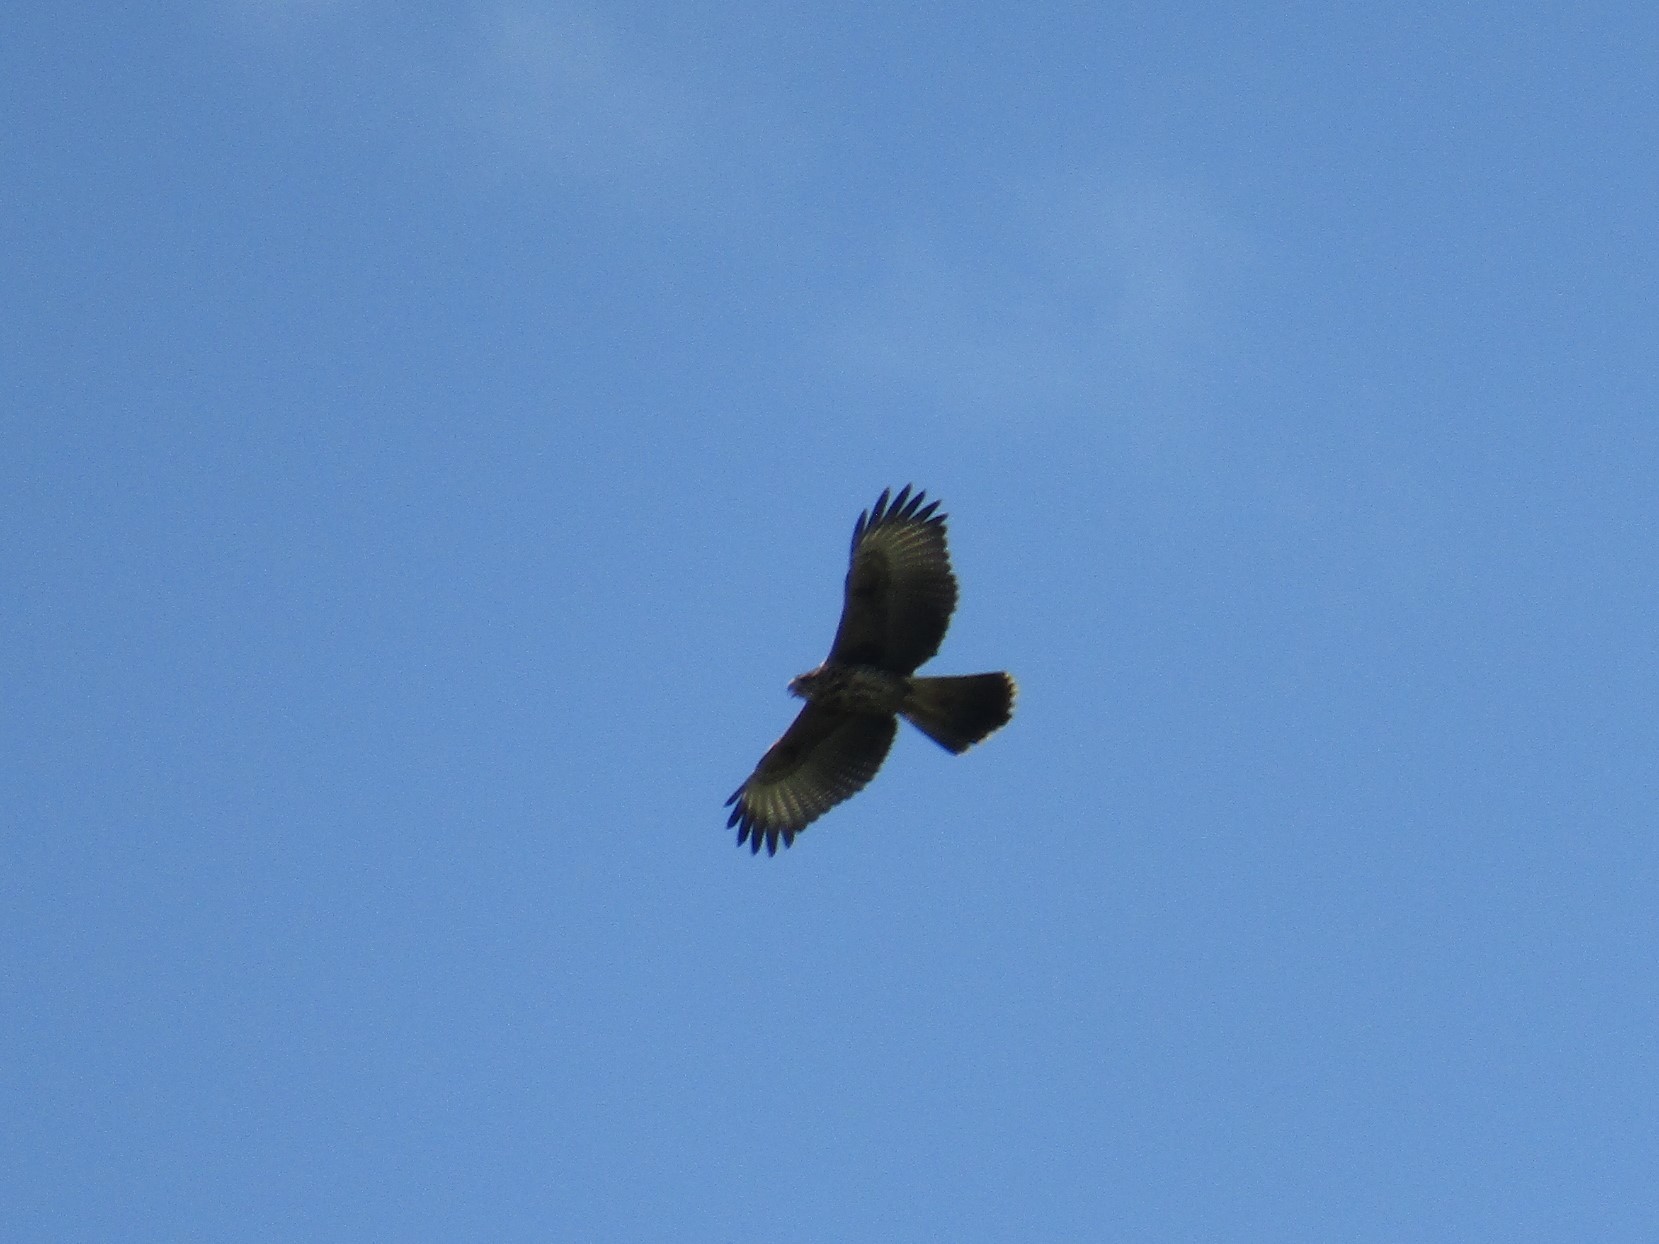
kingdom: Animalia
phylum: Chordata
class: Aves
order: Accipitriformes
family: Accipitridae
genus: Parabuteo
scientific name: Parabuteo unicinctus
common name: Harris's hawk
